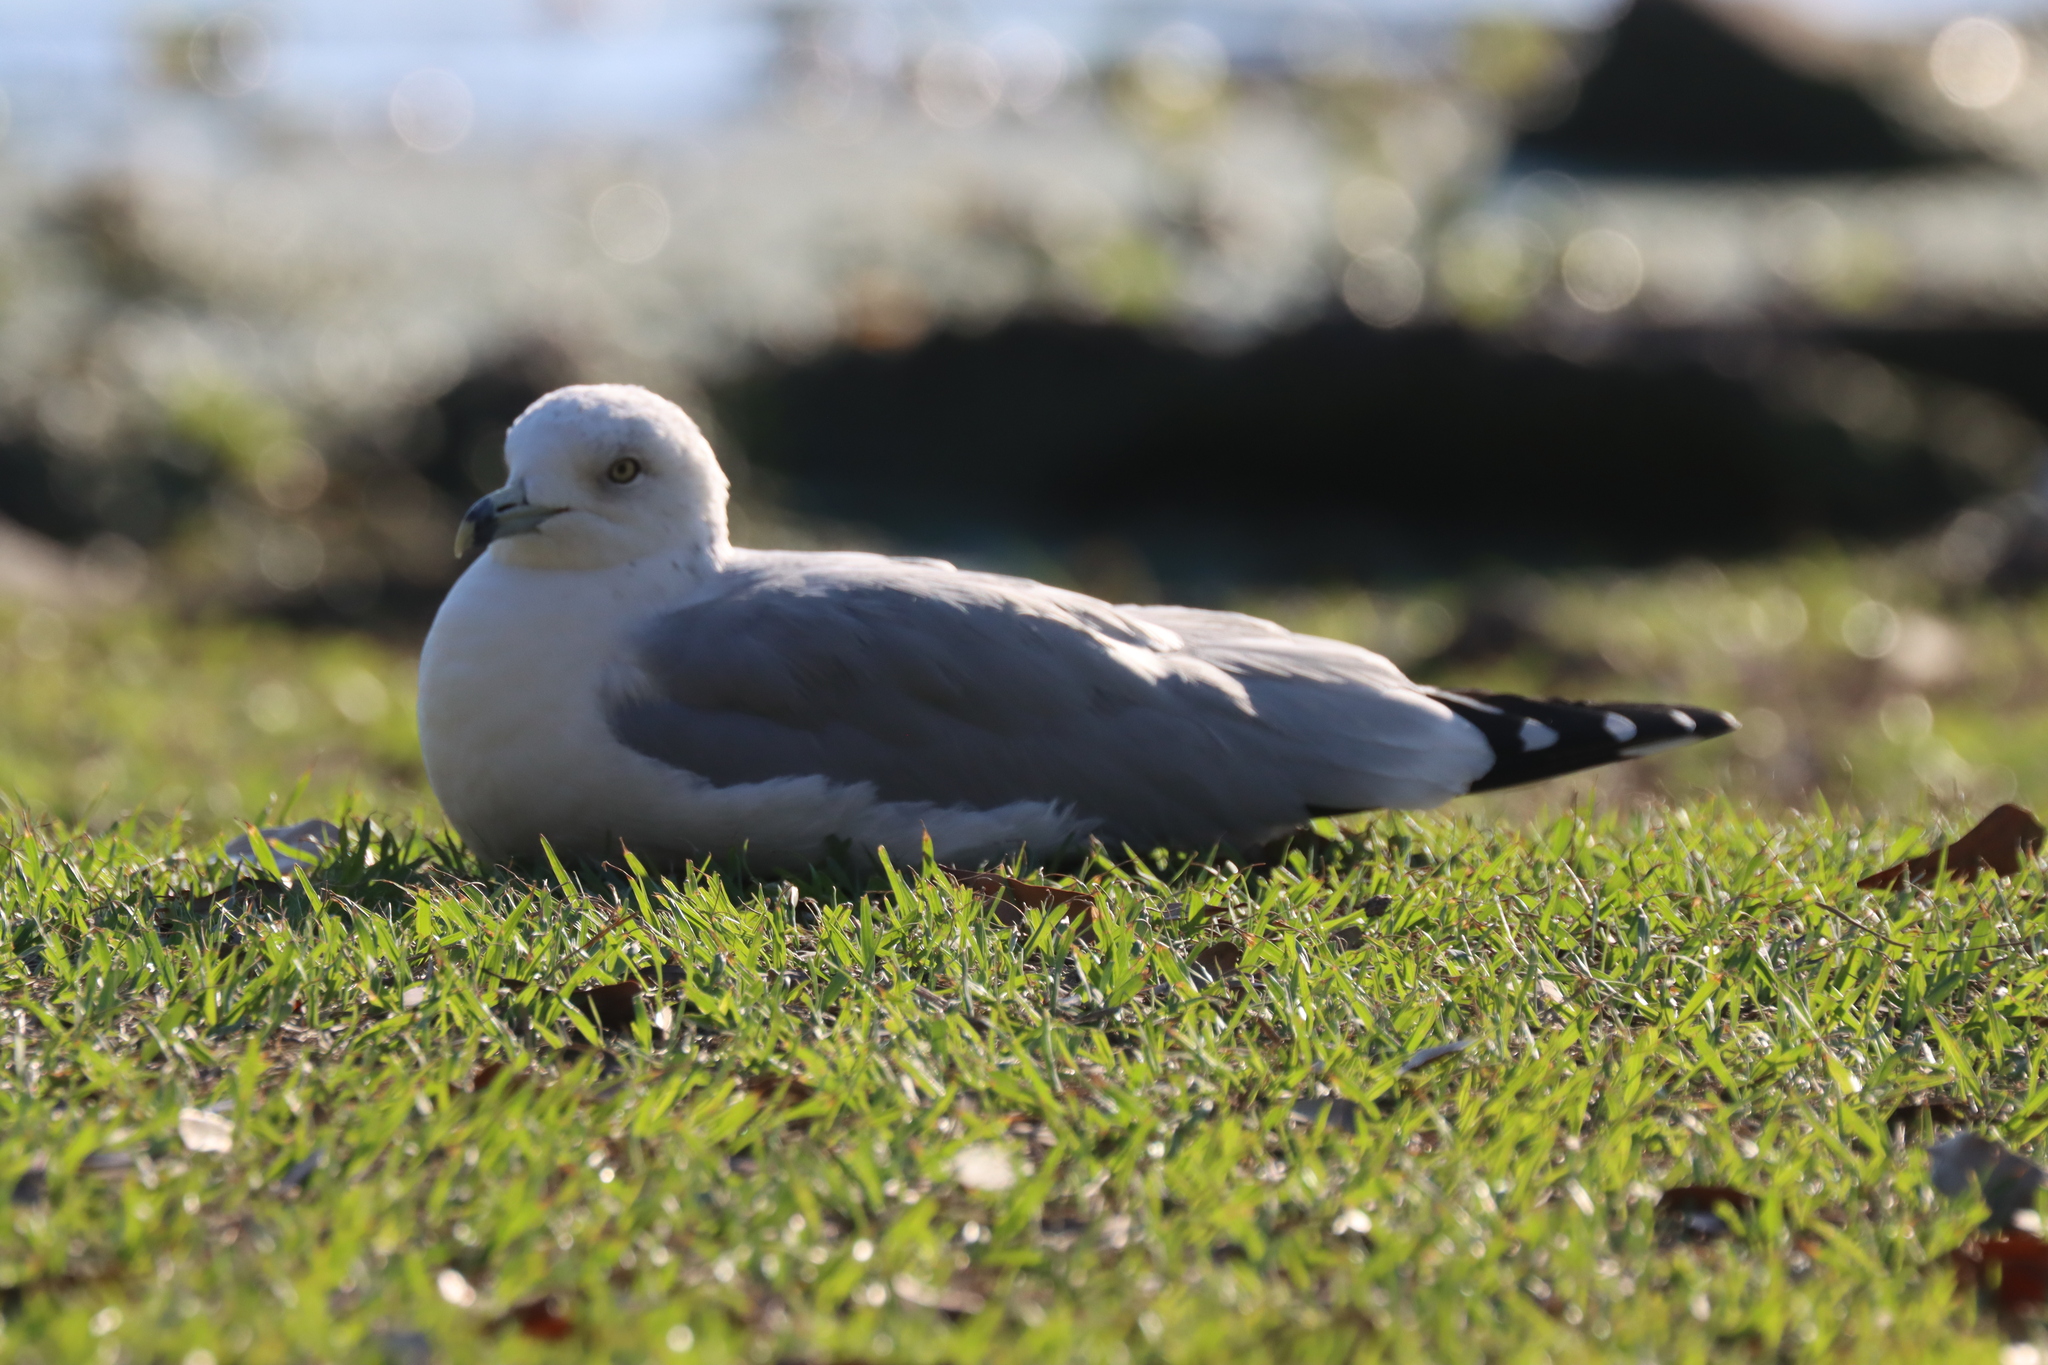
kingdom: Animalia
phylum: Chordata
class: Aves
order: Charadriiformes
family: Laridae
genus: Larus
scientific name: Larus delawarensis
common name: Ring-billed gull
